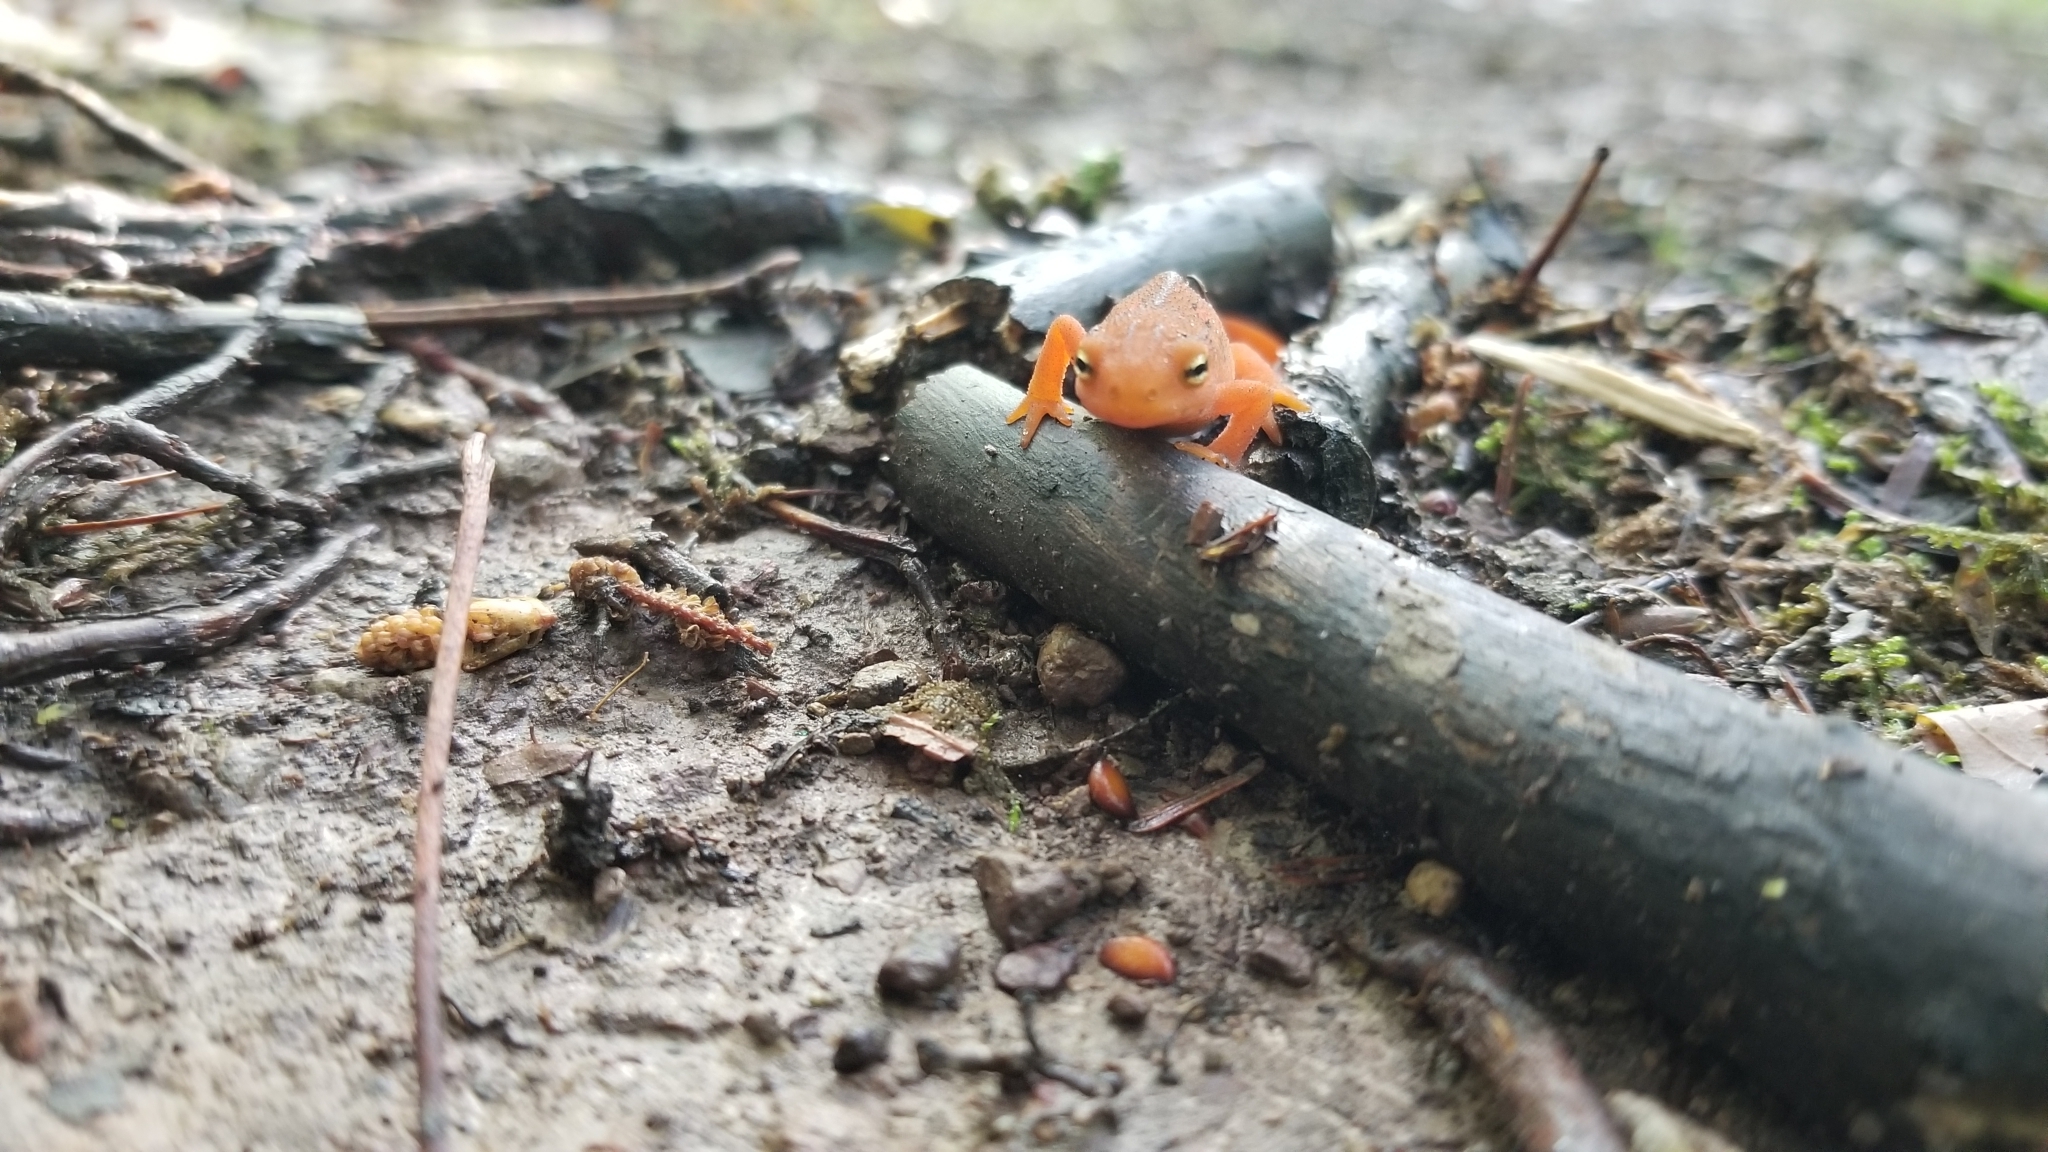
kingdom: Animalia
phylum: Chordata
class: Amphibia
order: Caudata
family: Salamandridae
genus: Notophthalmus
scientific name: Notophthalmus viridescens
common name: Eastern newt
